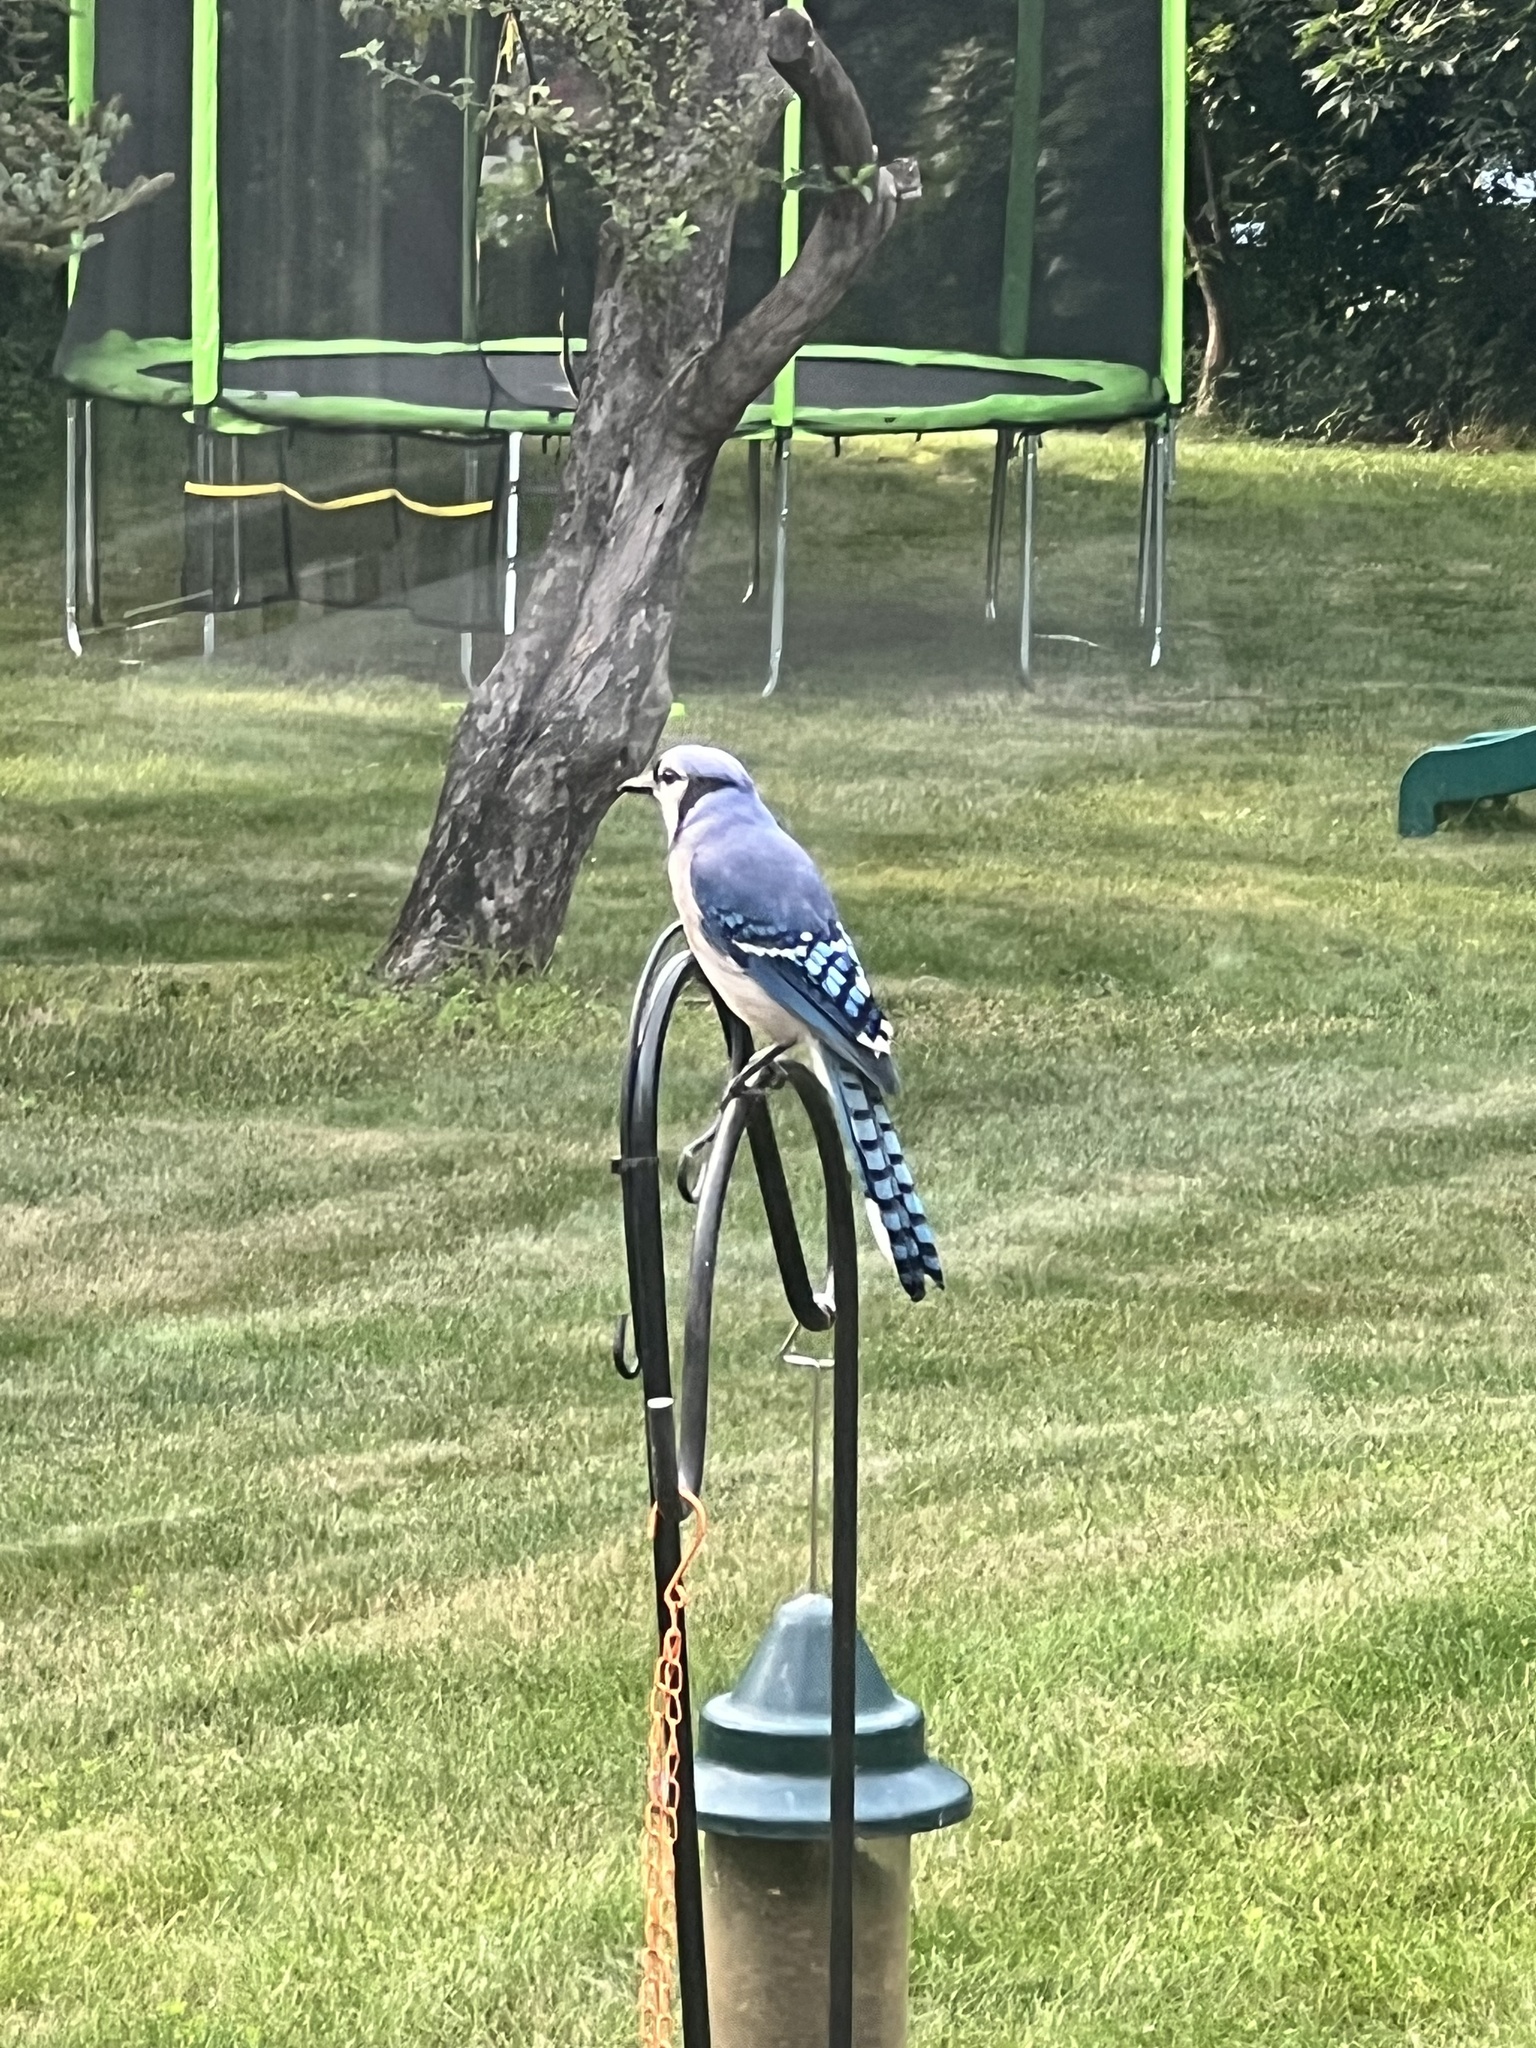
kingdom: Animalia
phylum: Chordata
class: Aves
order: Passeriformes
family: Corvidae
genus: Cyanocitta
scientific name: Cyanocitta cristata
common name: Blue jay
